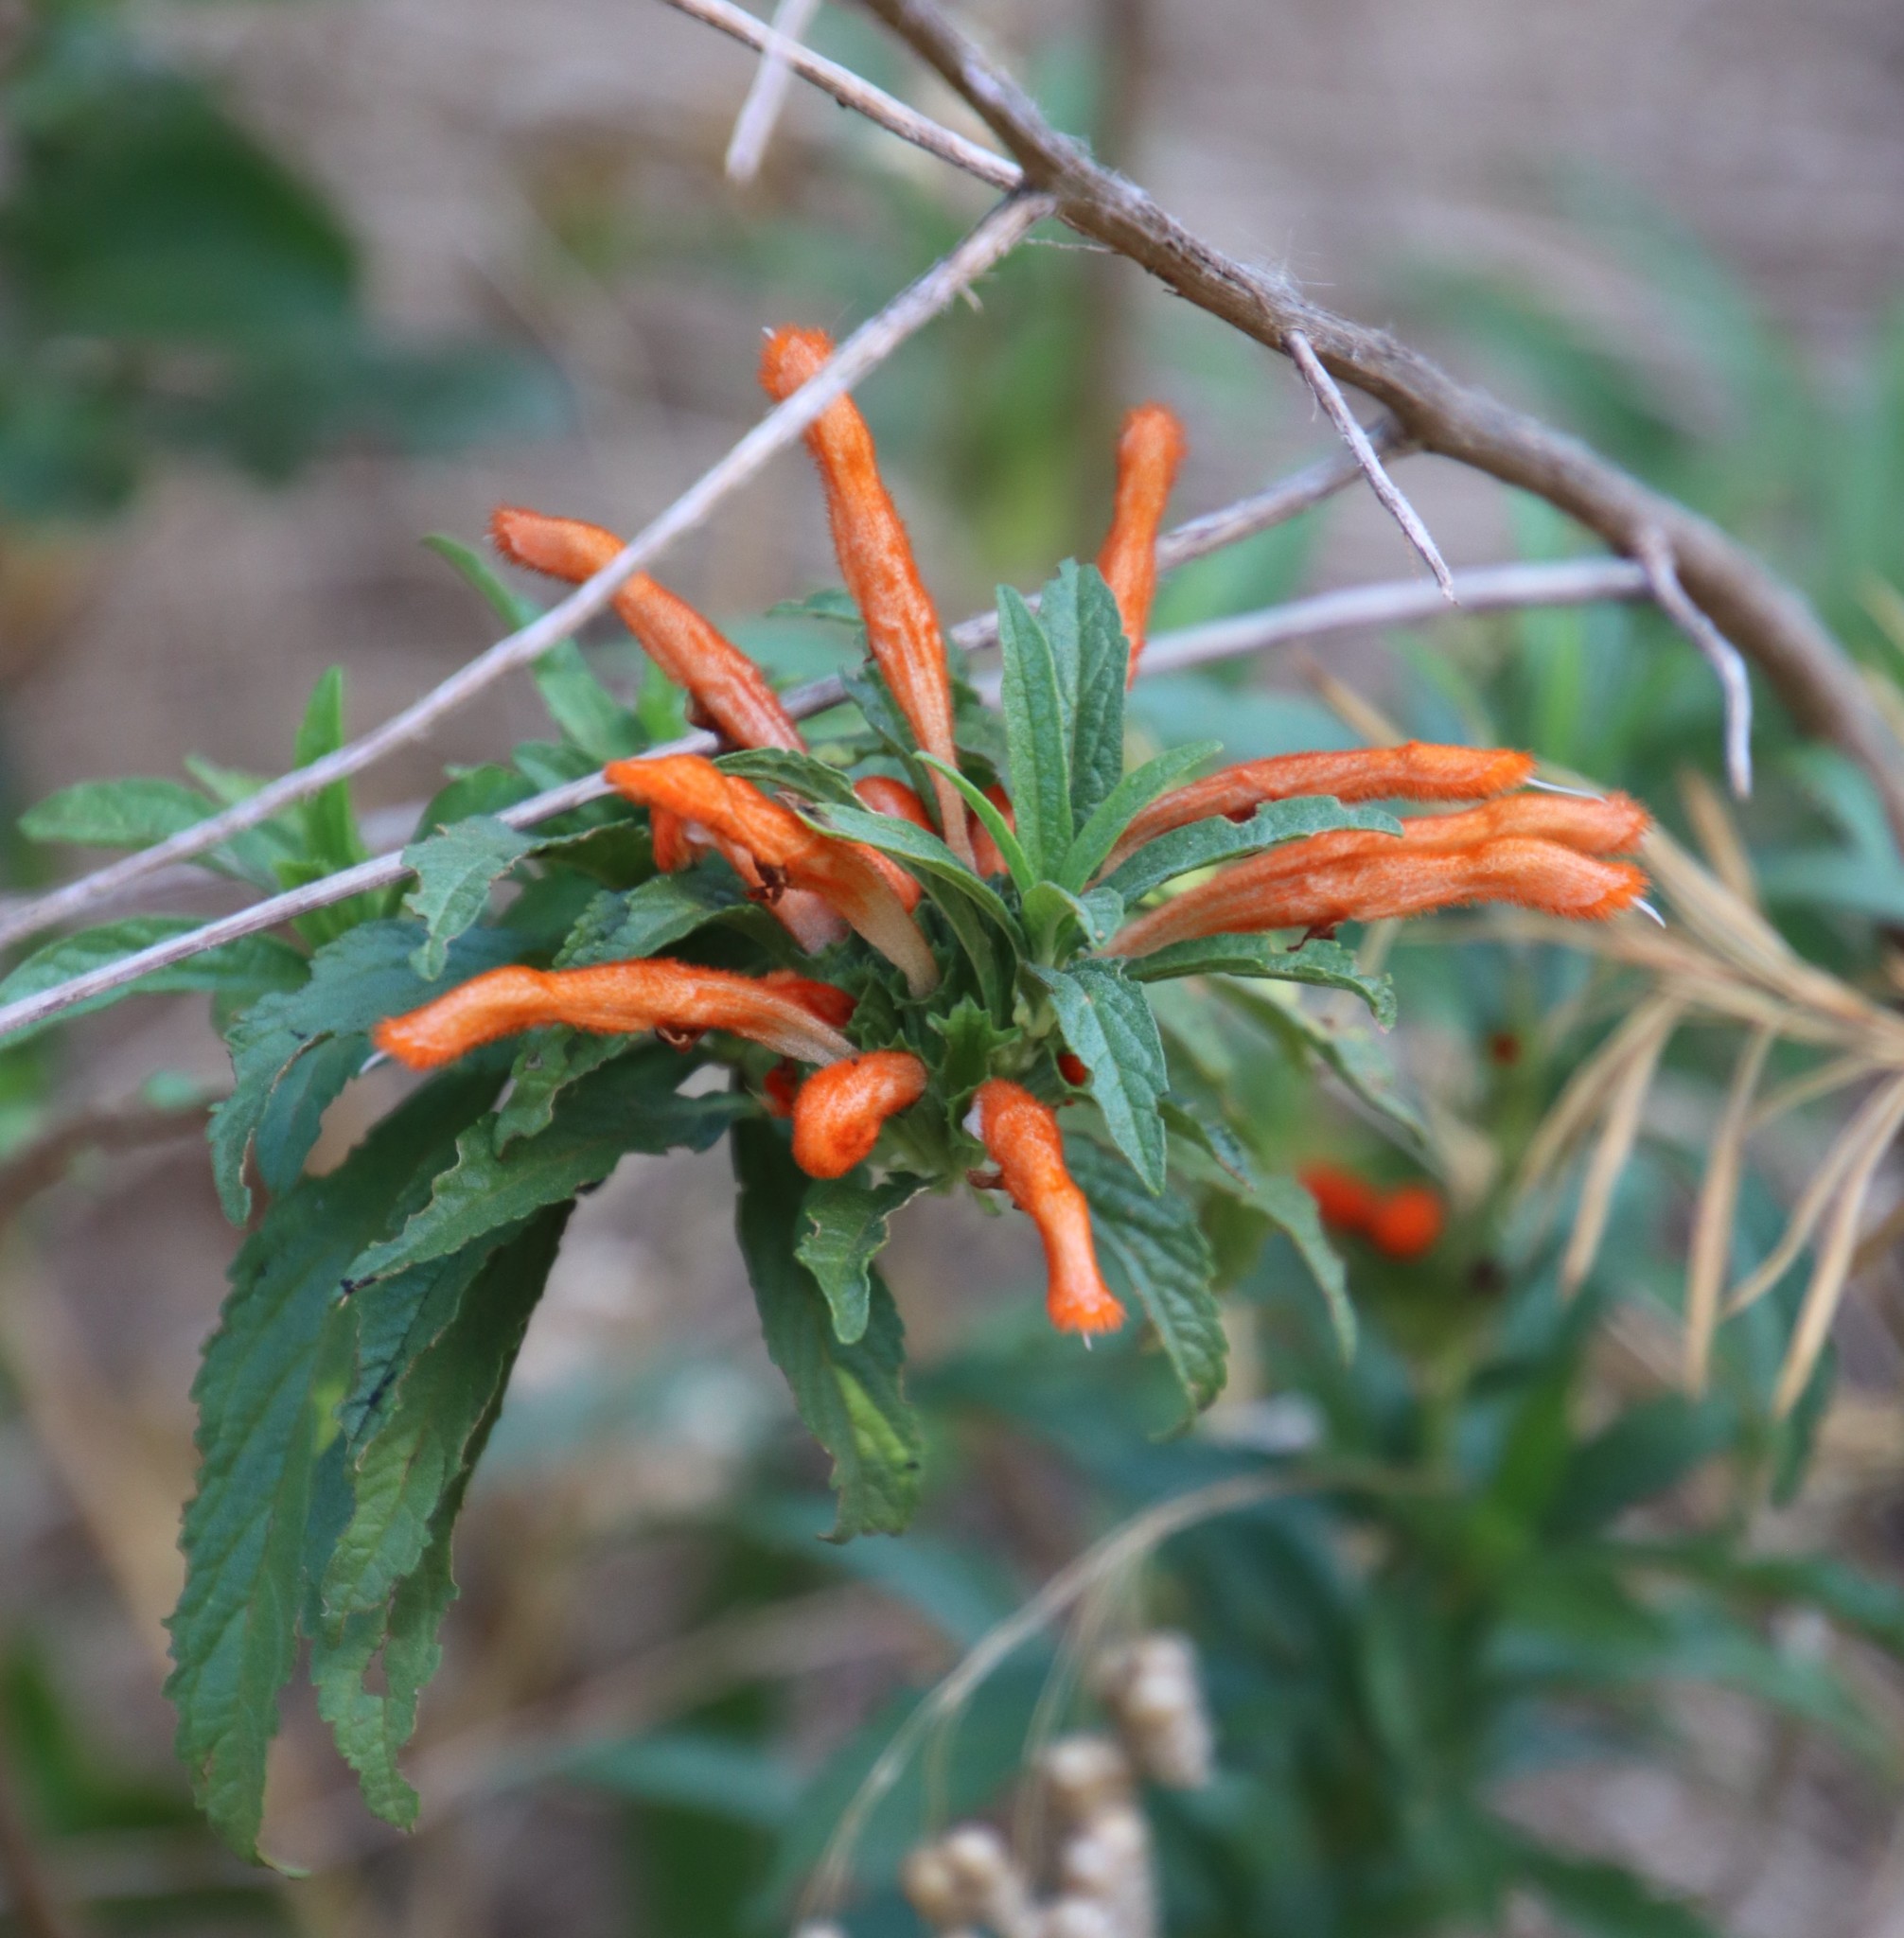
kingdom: Plantae
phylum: Tracheophyta
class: Magnoliopsida
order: Lamiales
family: Lamiaceae
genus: Leonotis
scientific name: Leonotis leonurus
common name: Lion's ear
